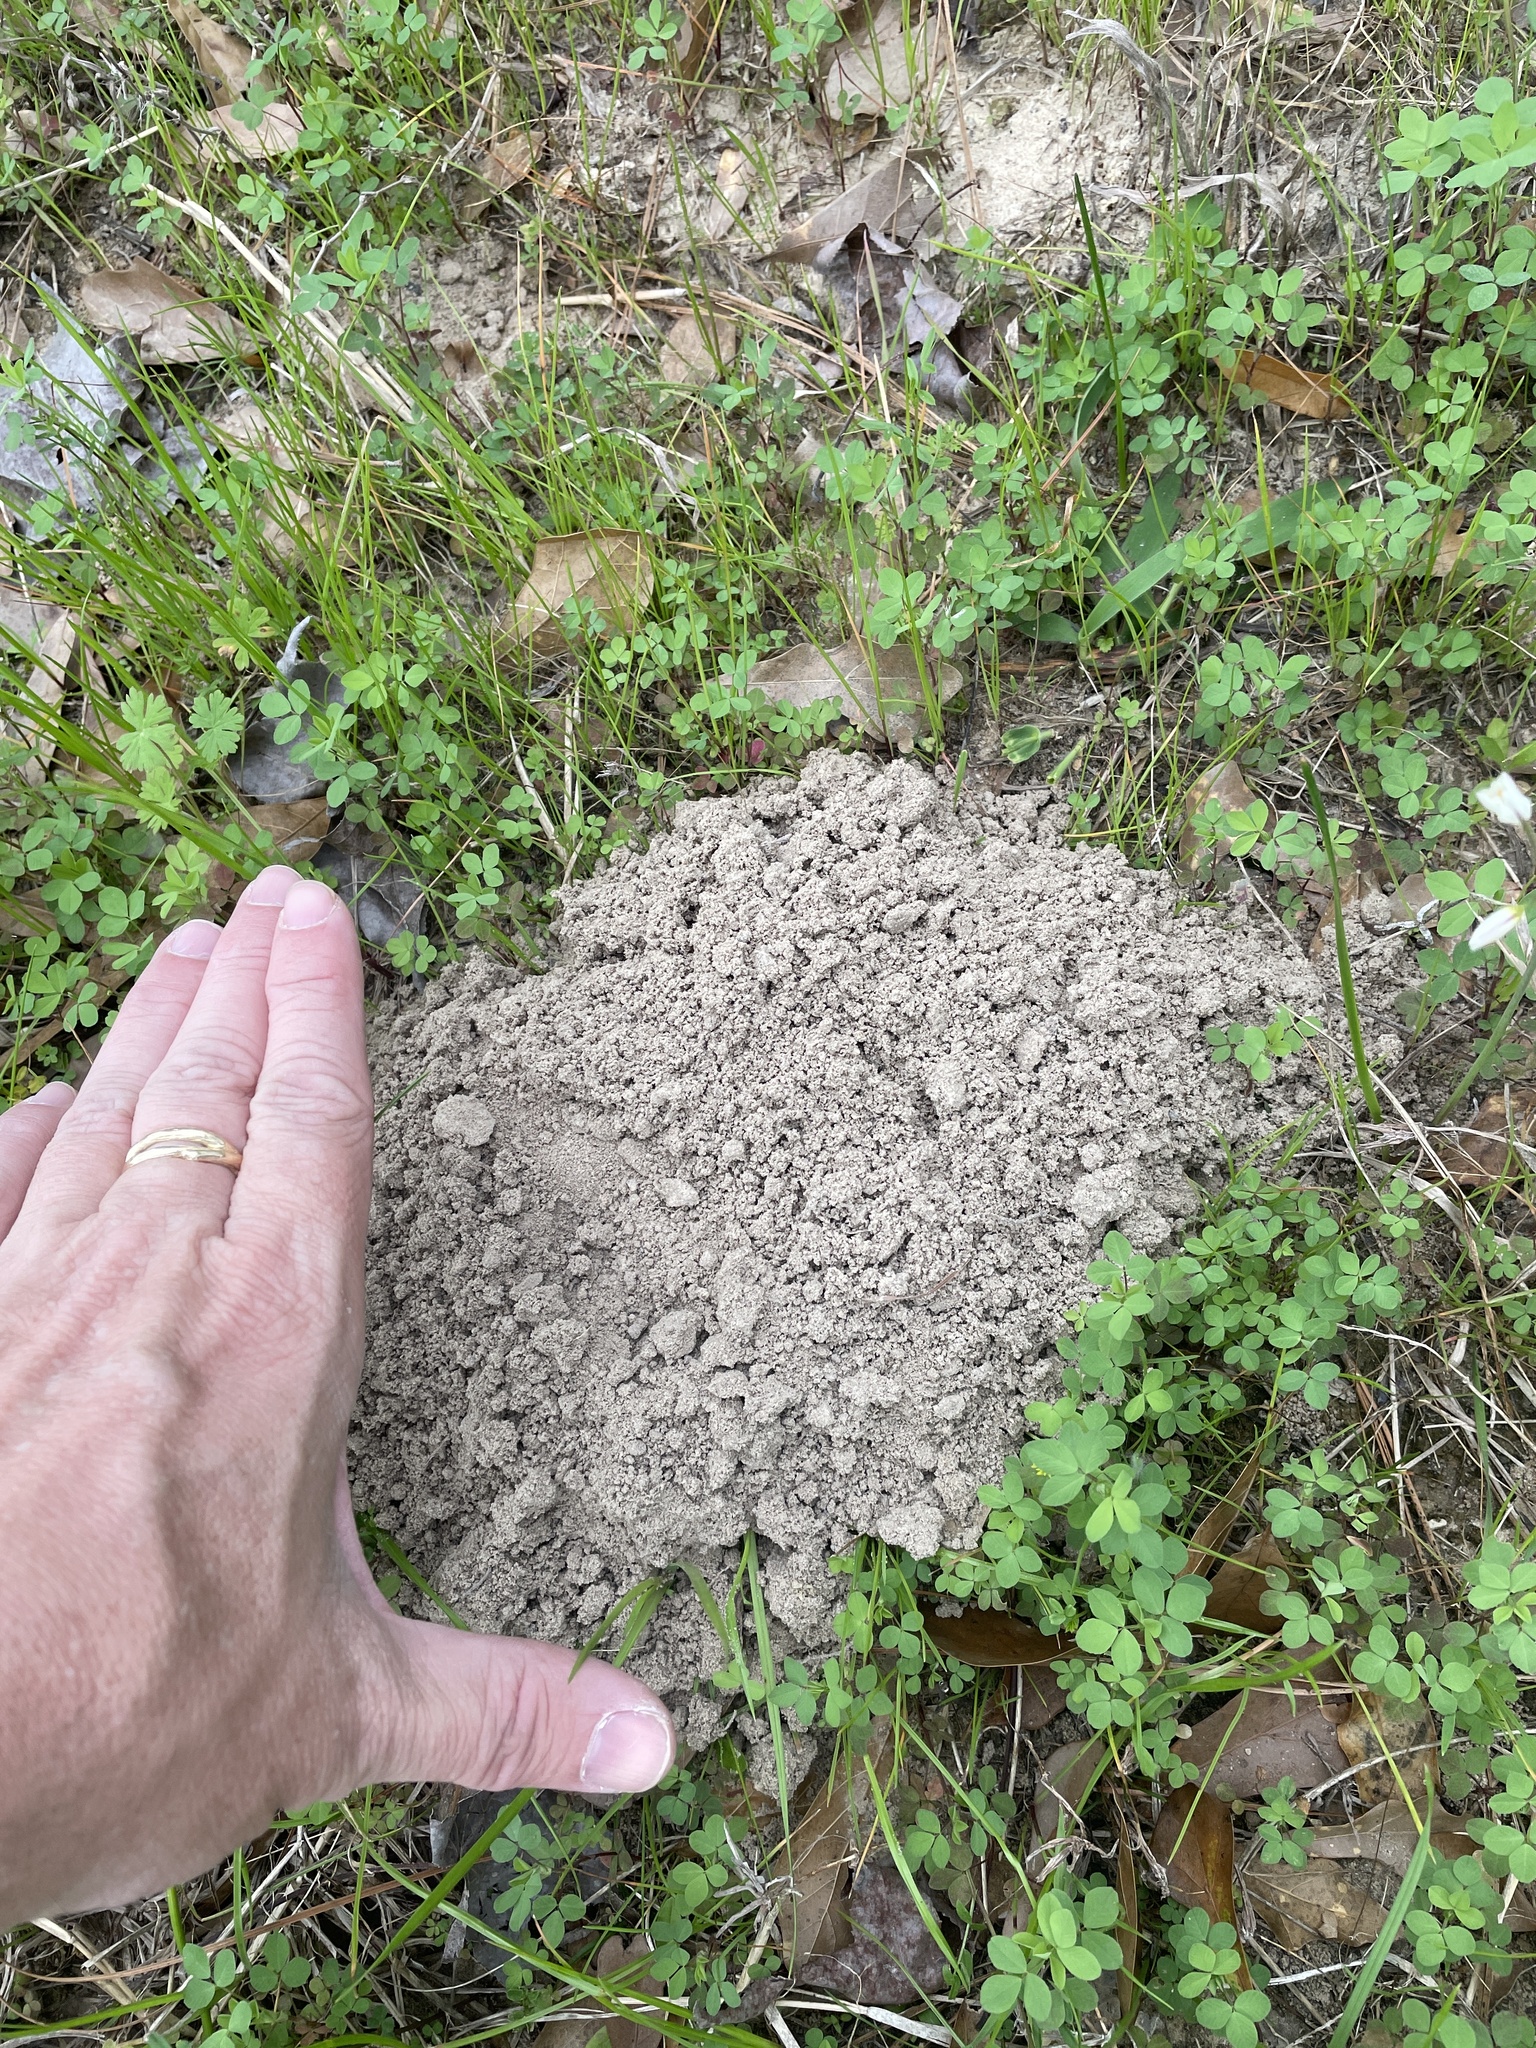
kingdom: Animalia
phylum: Chordata
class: Mammalia
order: Rodentia
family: Geomyidae
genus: Geomys
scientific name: Geomys breviceps
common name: Baird's pocket gopher
